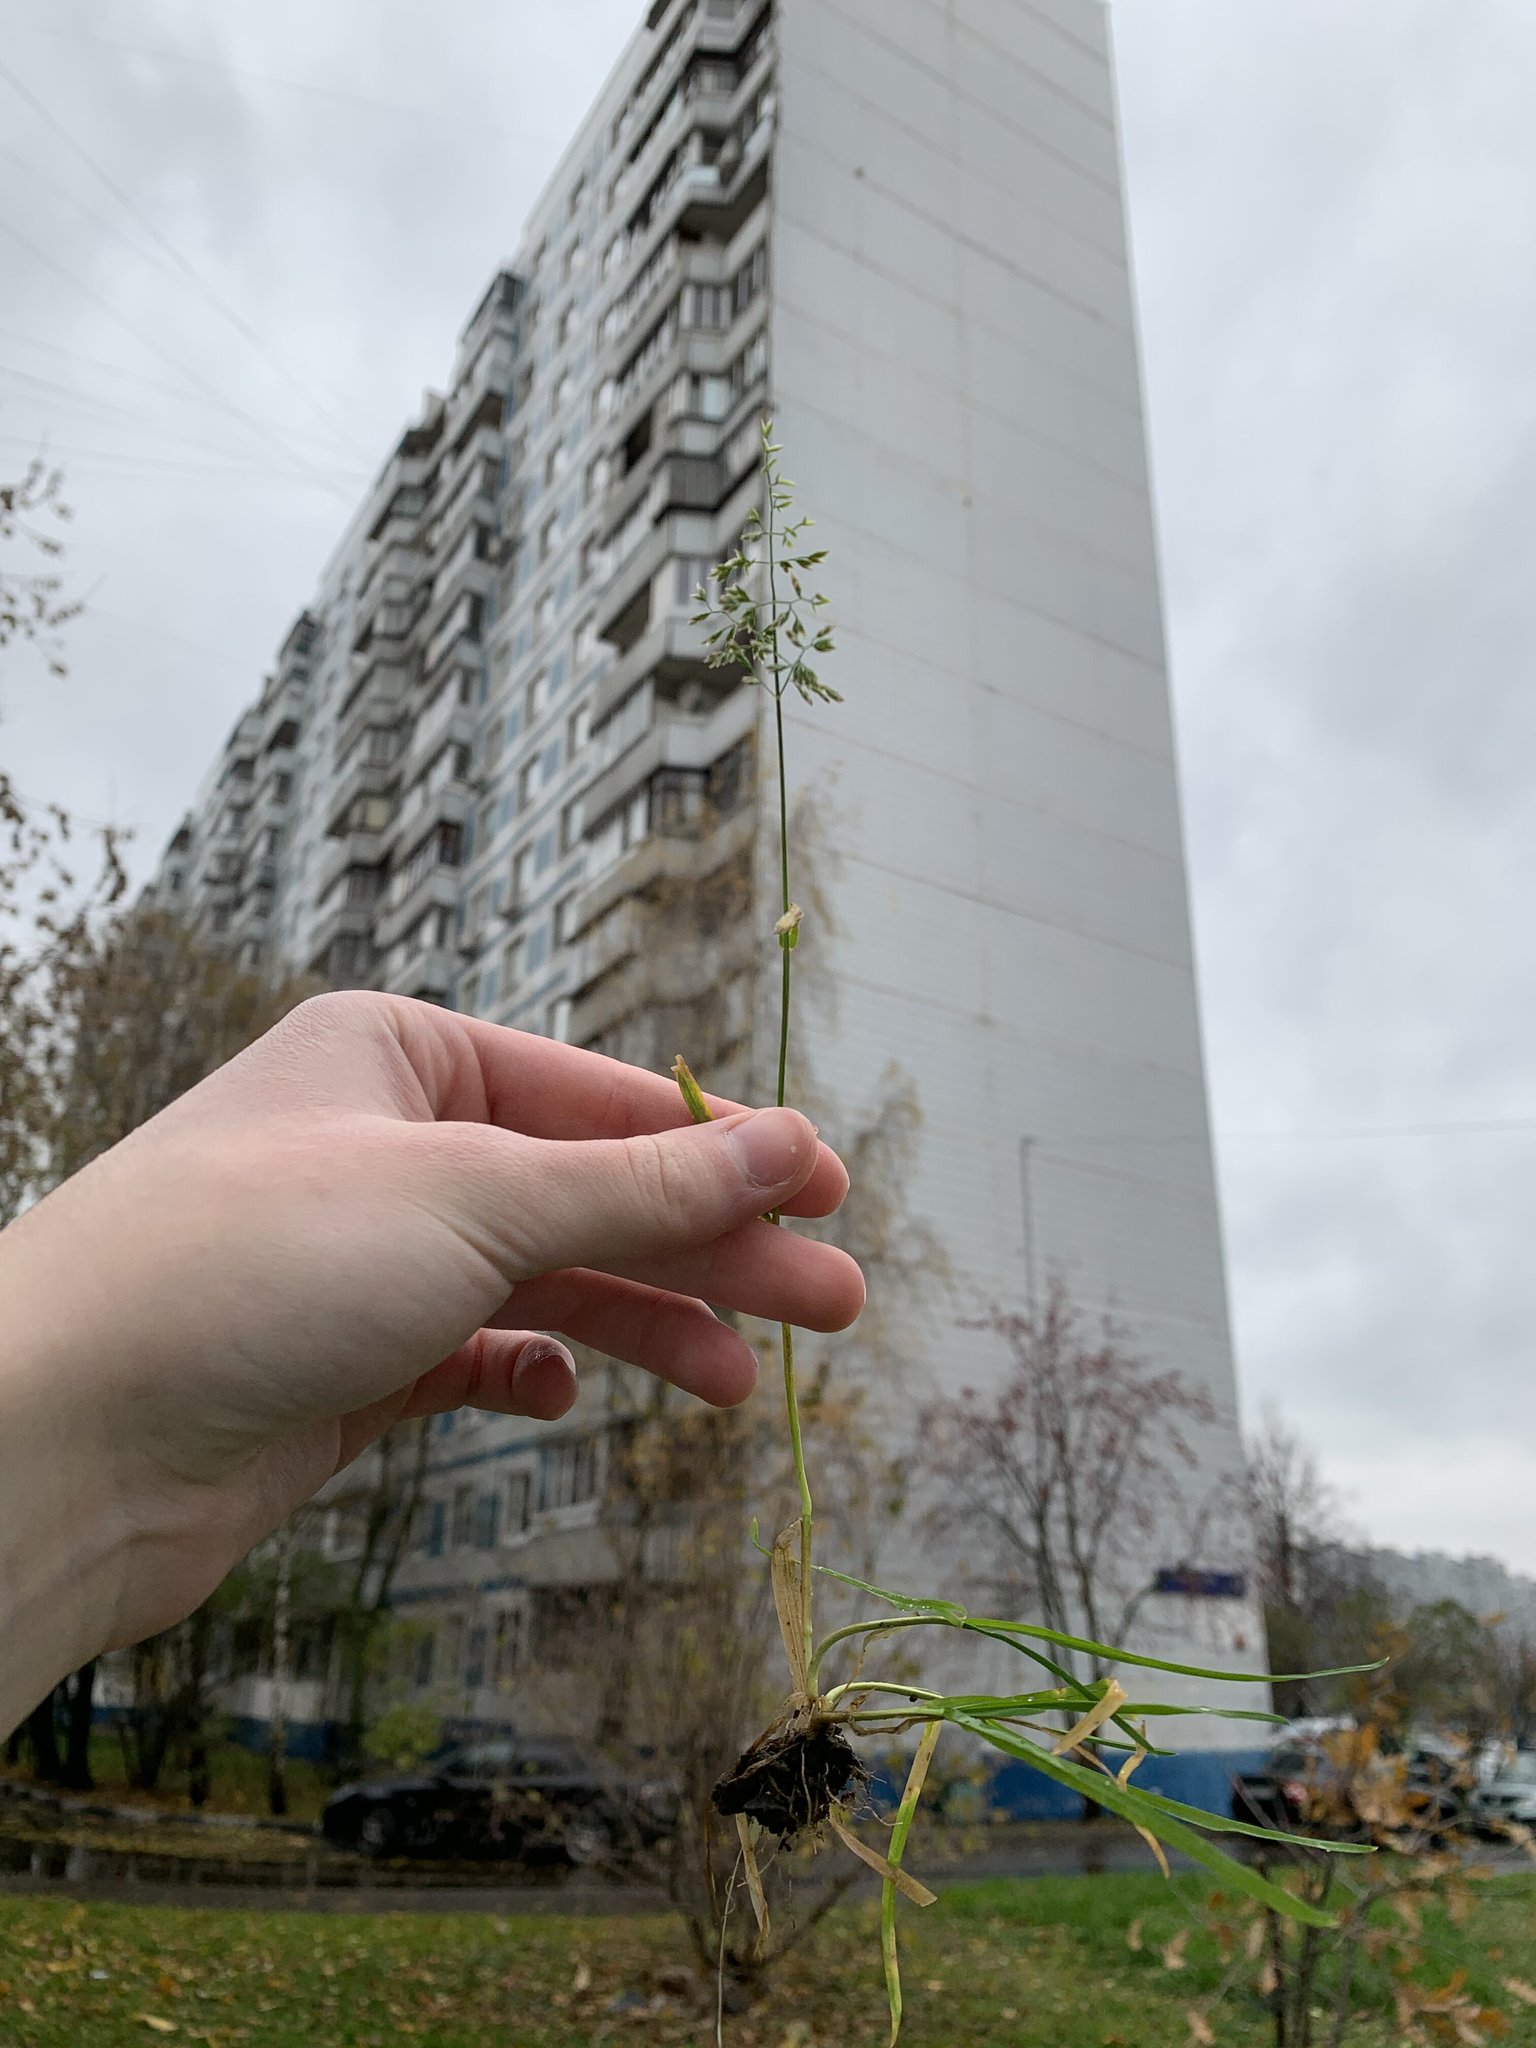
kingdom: Plantae
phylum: Tracheophyta
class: Liliopsida
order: Poales
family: Poaceae
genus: Poa
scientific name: Poa annua
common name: Annual bluegrass
